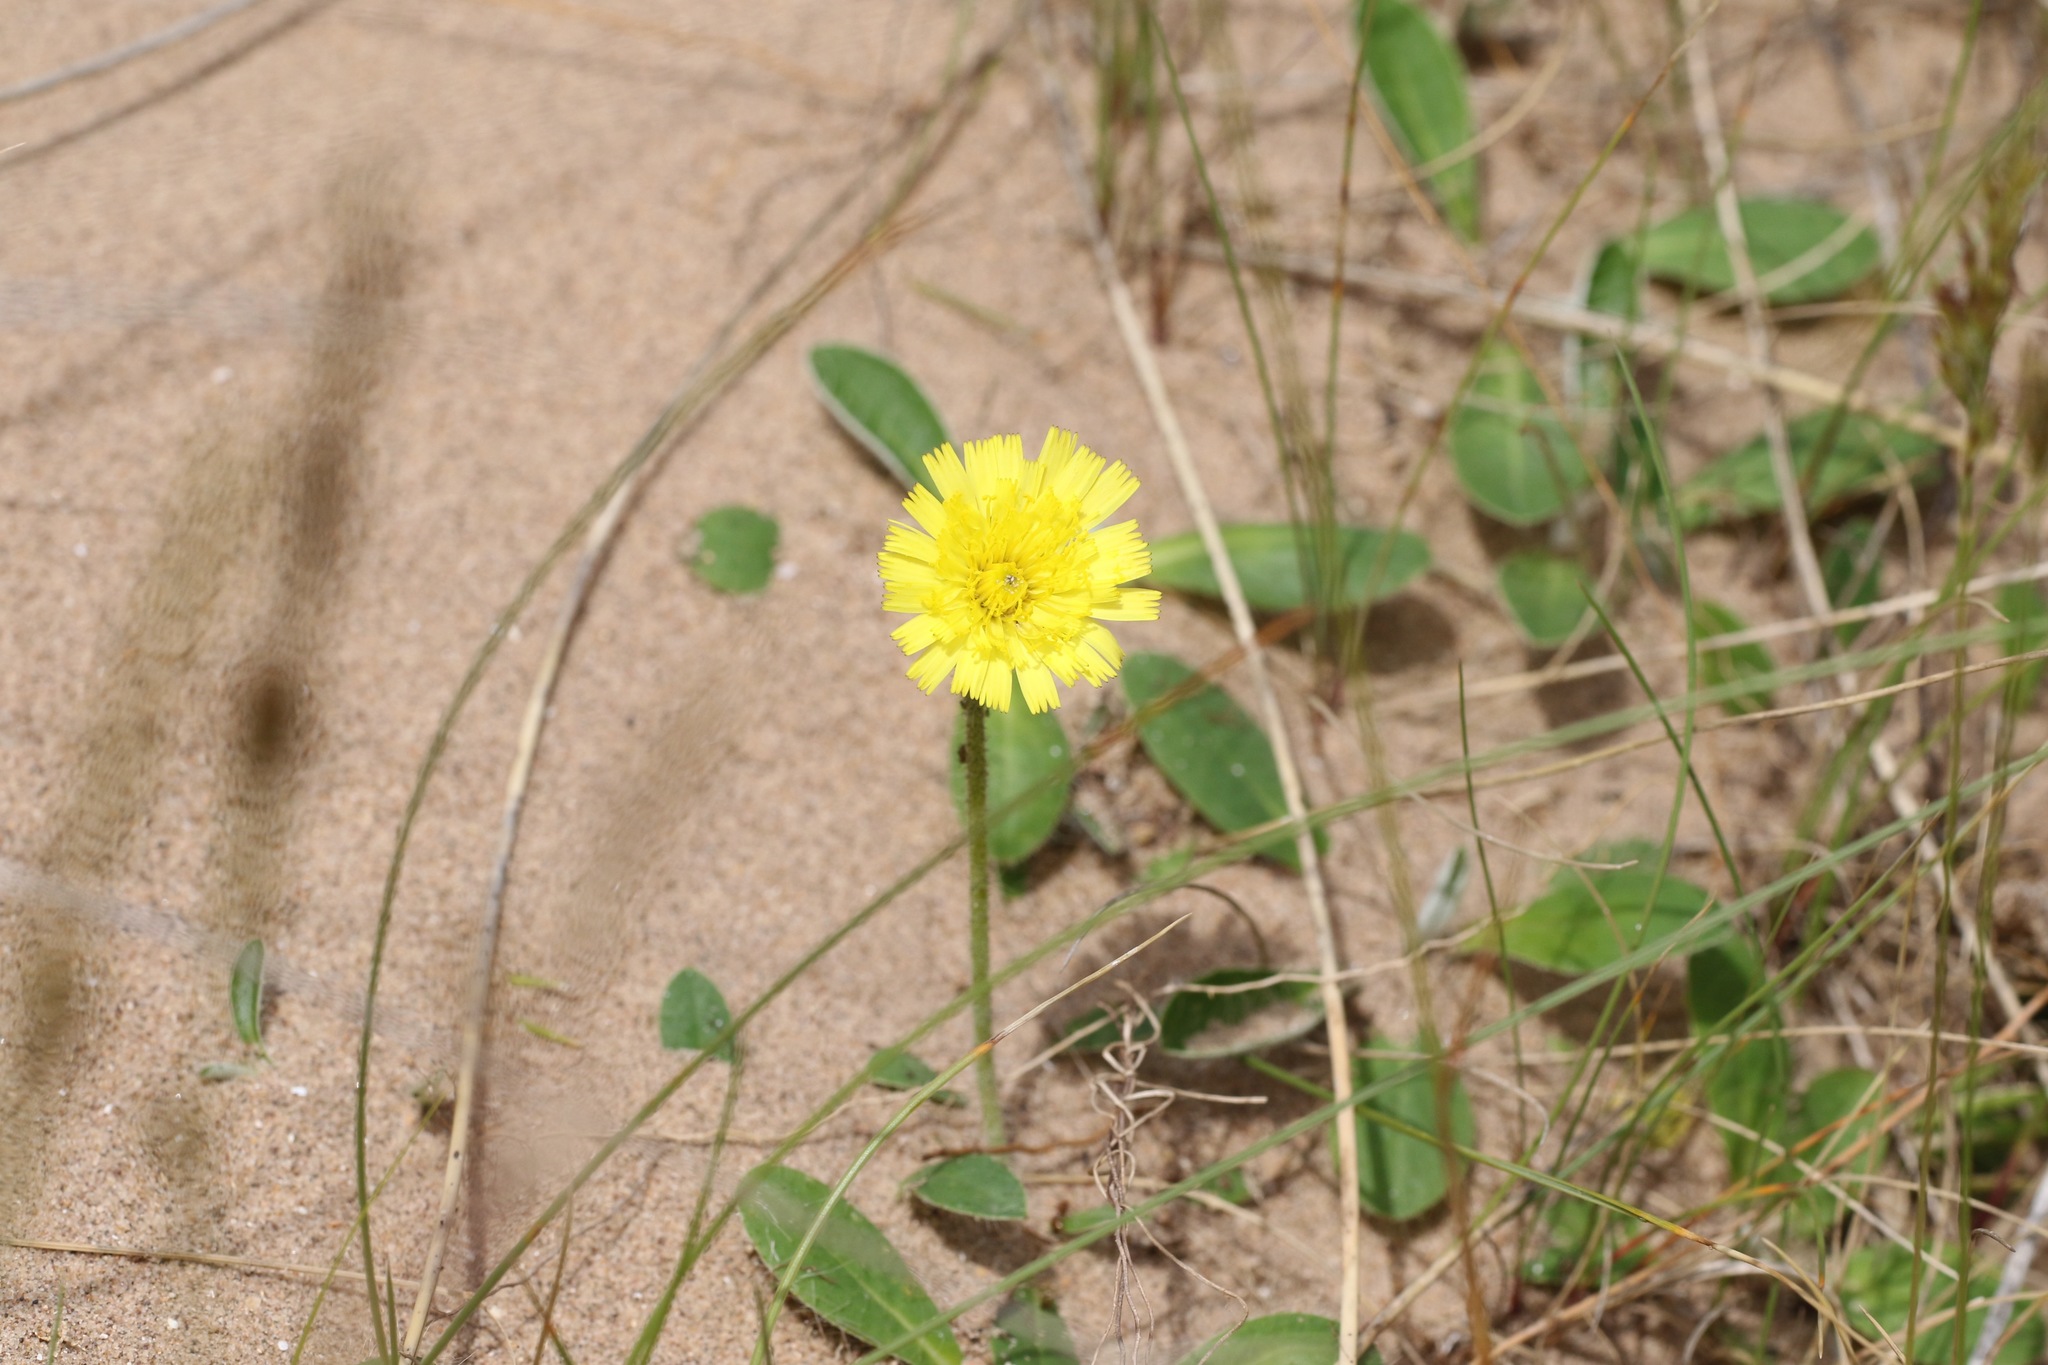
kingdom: Plantae
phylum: Tracheophyta
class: Magnoliopsida
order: Asterales
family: Asteraceae
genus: Pilosella
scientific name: Pilosella officinarum
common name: Mouse-ear hawkweed
